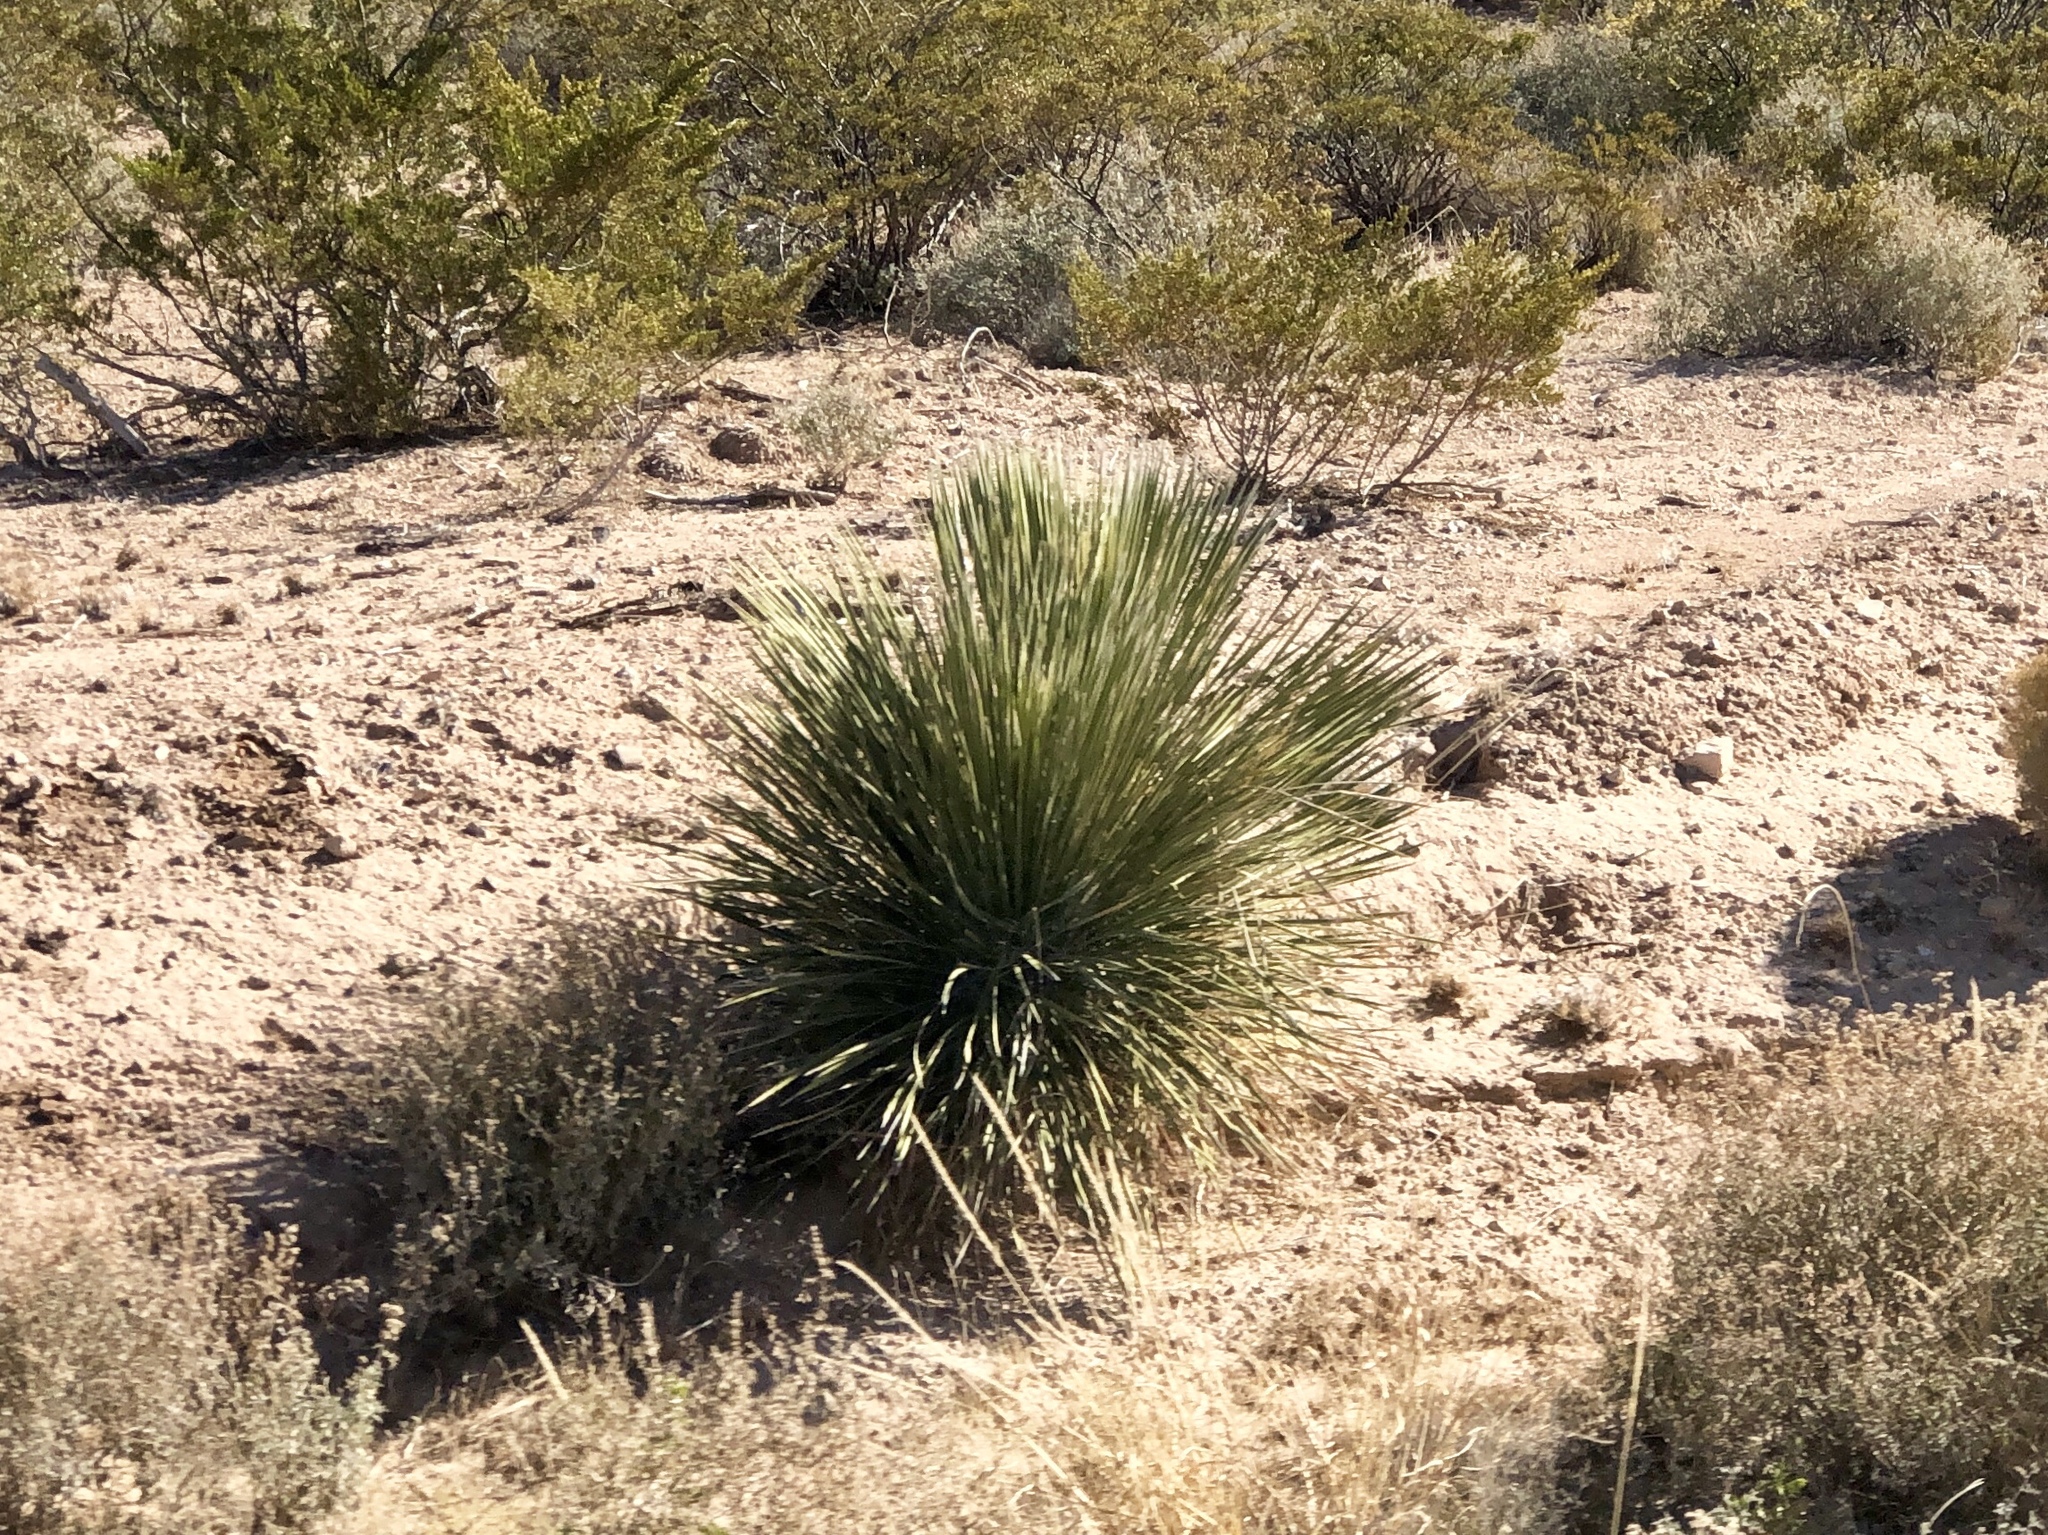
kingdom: Plantae
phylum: Tracheophyta
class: Liliopsida
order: Asparagales
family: Asparagaceae
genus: Yucca
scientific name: Yucca elata
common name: Palmella
